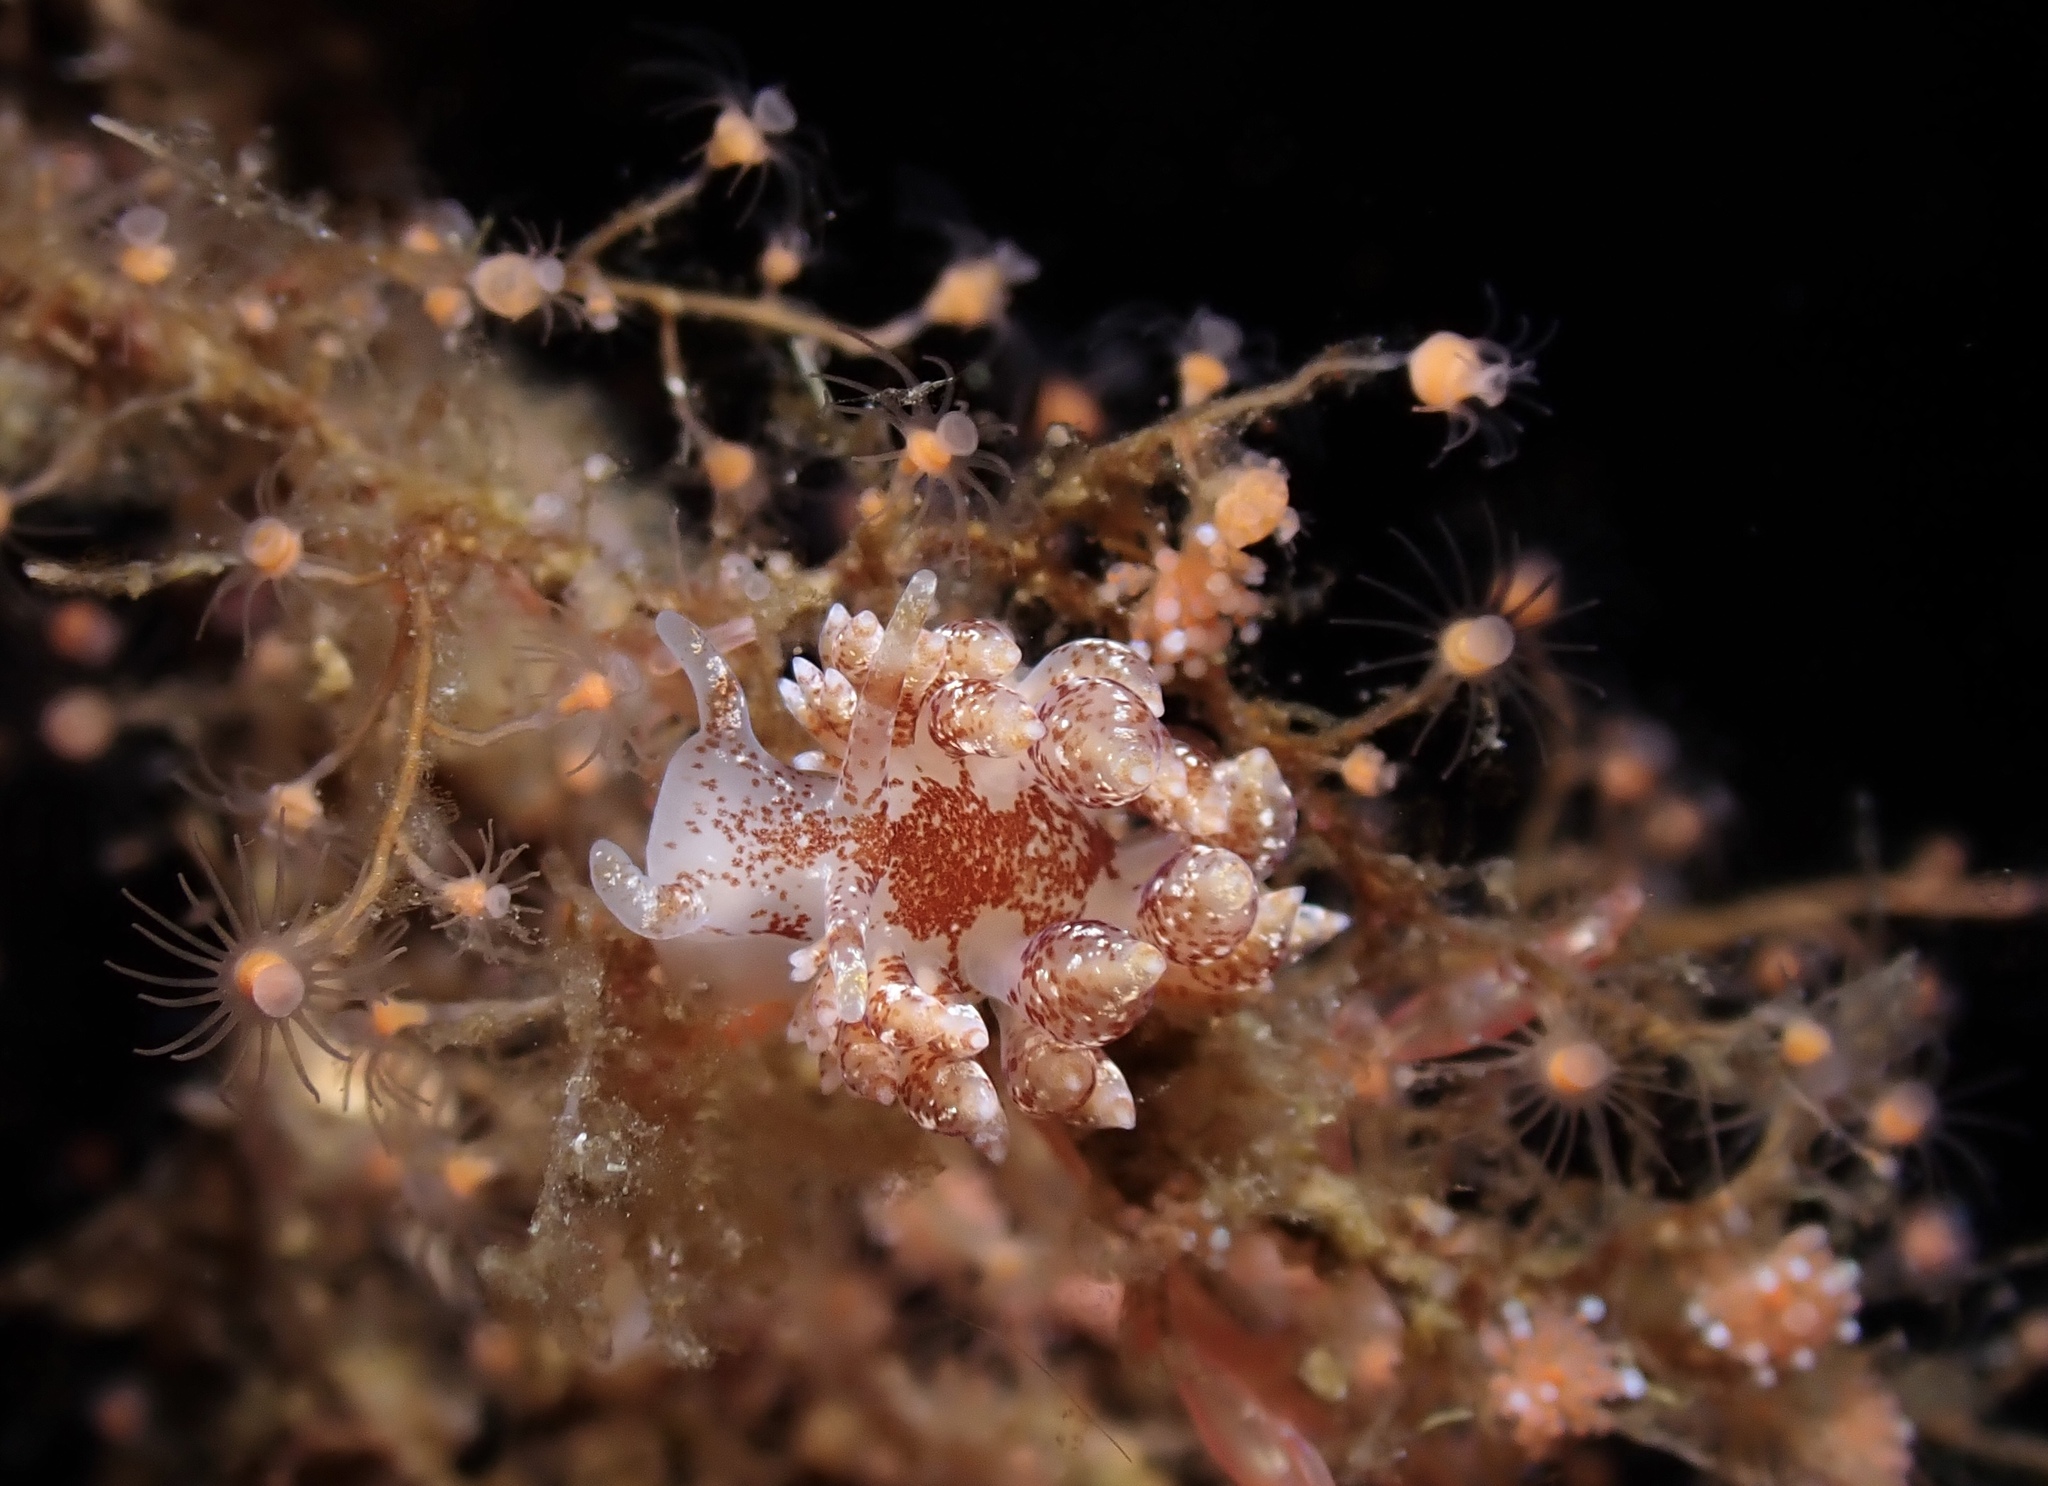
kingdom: Animalia
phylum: Mollusca
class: Gastropoda
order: Nudibranchia
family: Eubranchidae
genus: Amphorina
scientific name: Amphorina pallida
